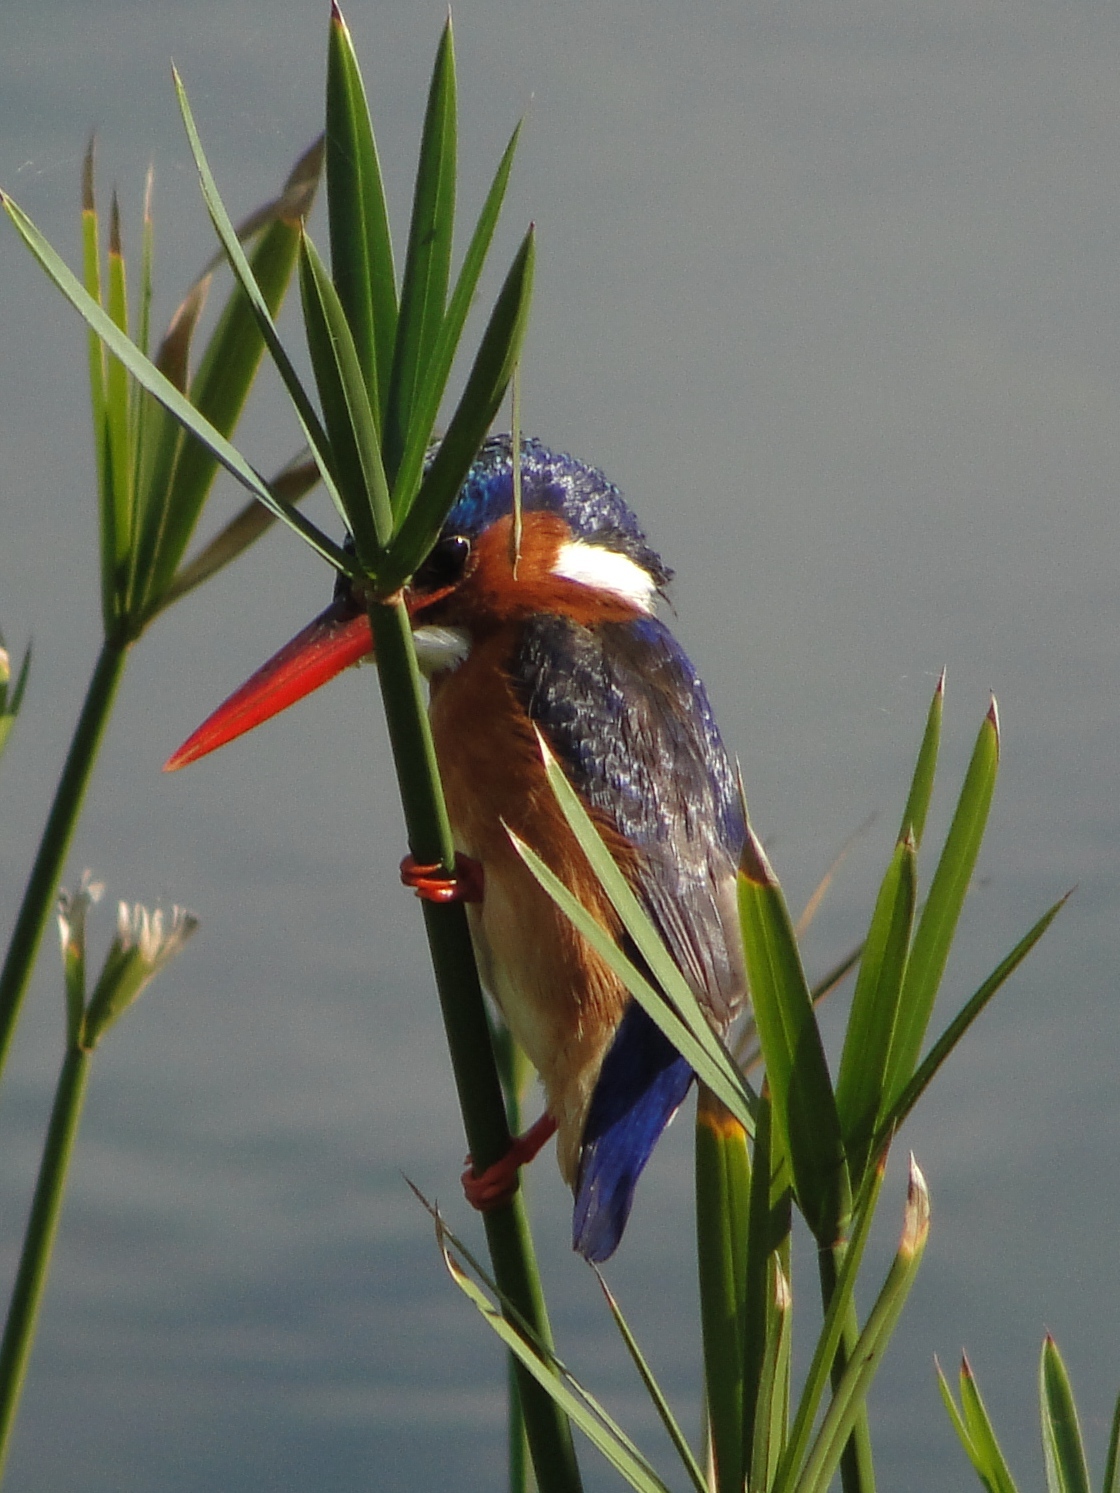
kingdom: Animalia
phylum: Chordata
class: Aves
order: Coraciiformes
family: Alcedinidae
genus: Corythornis
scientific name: Corythornis cristatus
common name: Malachite kingfisher
